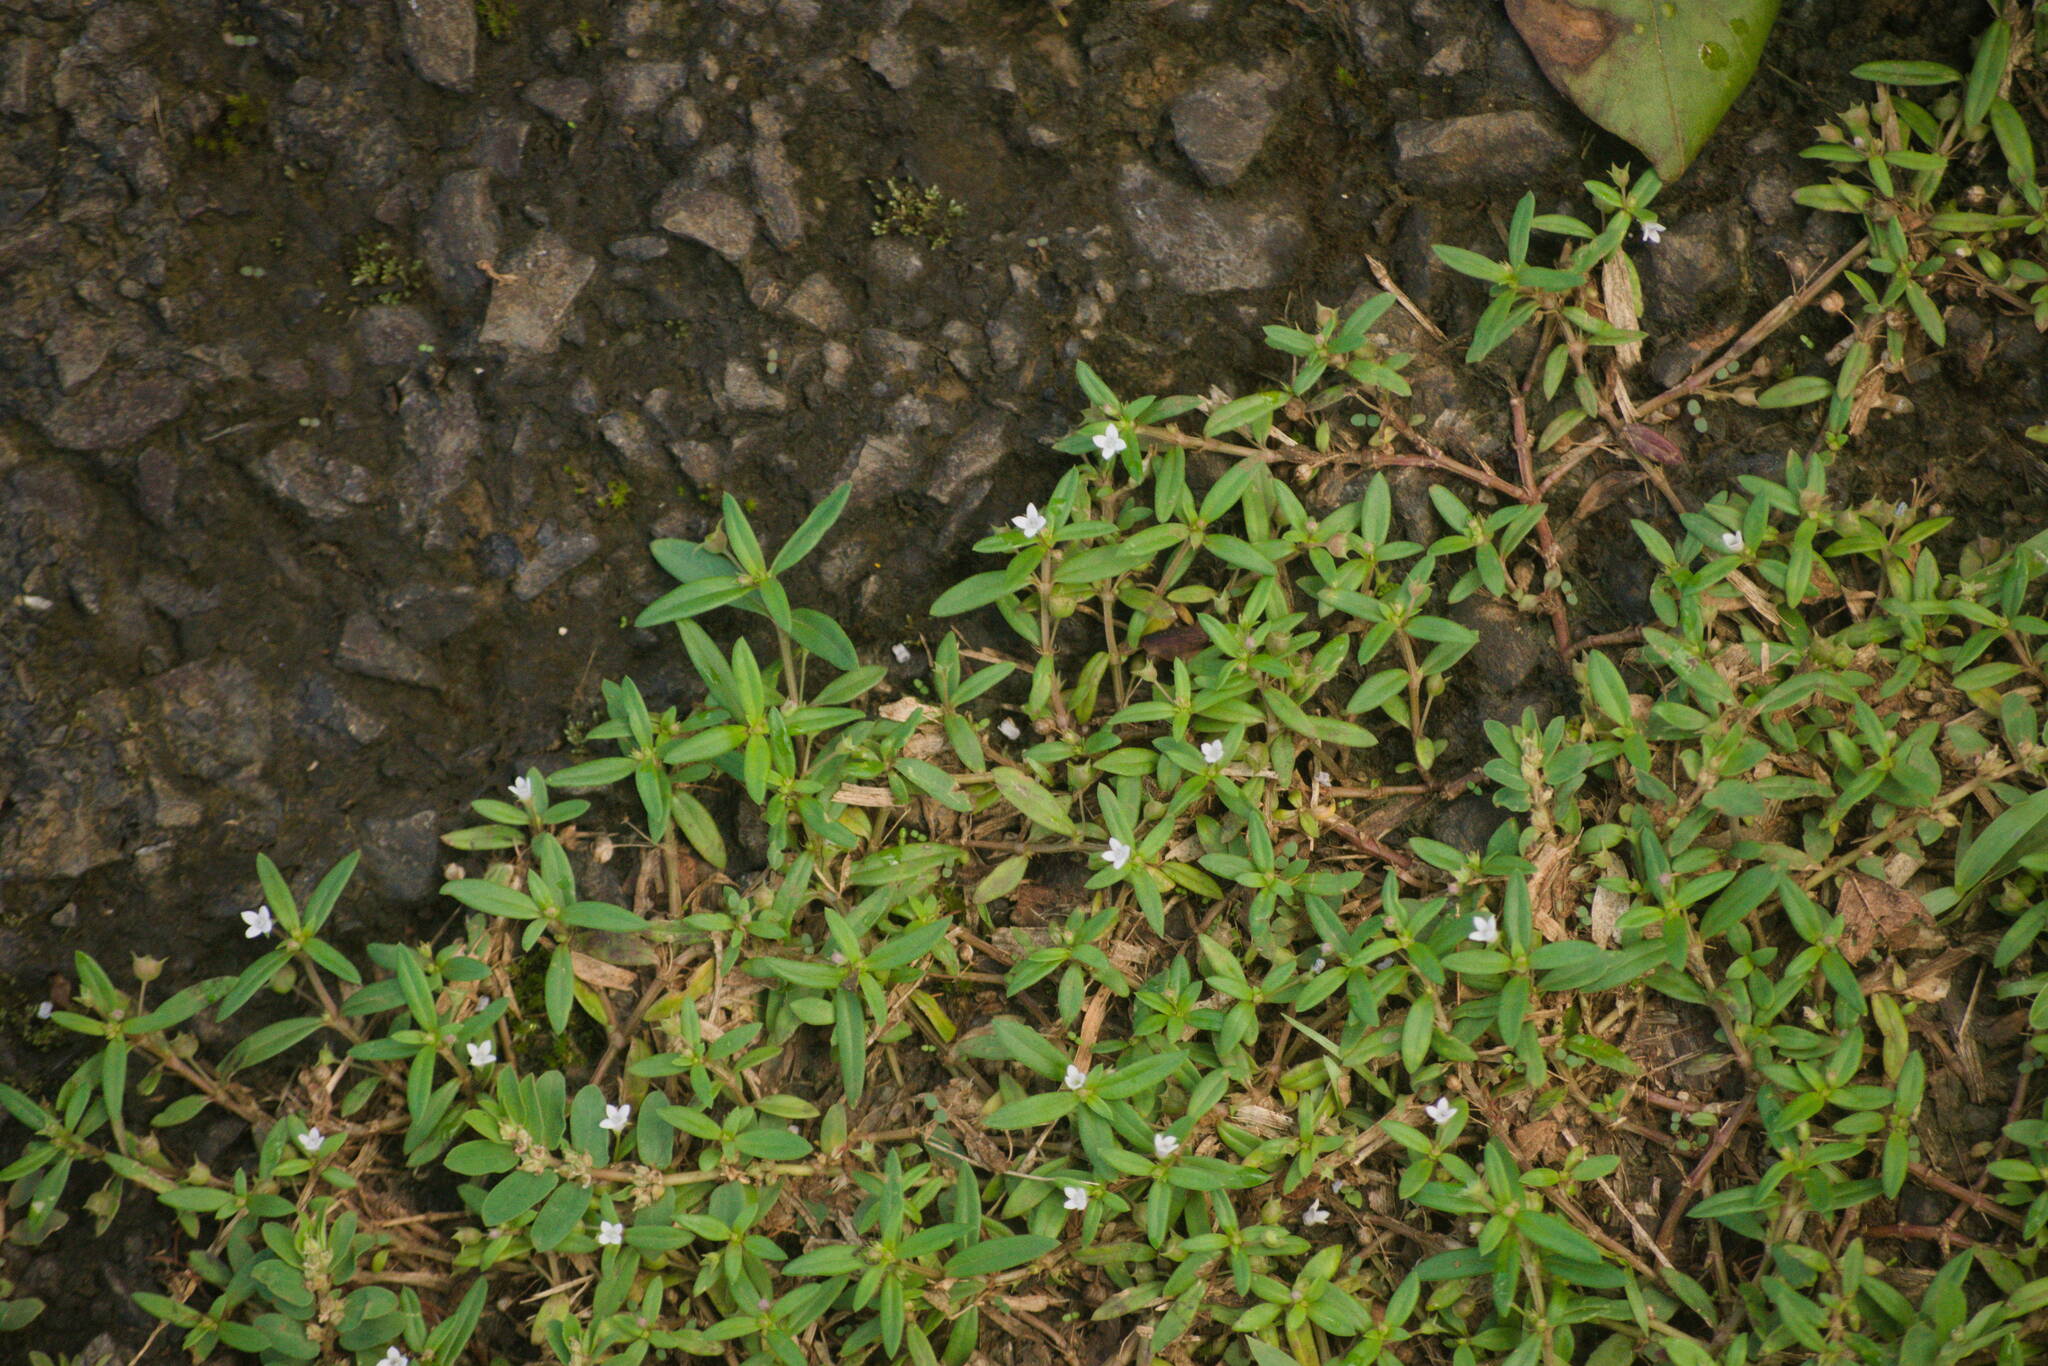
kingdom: Plantae
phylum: Tracheophyta
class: Magnoliopsida
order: Gentianales
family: Rubiaceae
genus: Oldenlandia
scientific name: Oldenlandia corymbosa
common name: Flat-top mille graines
